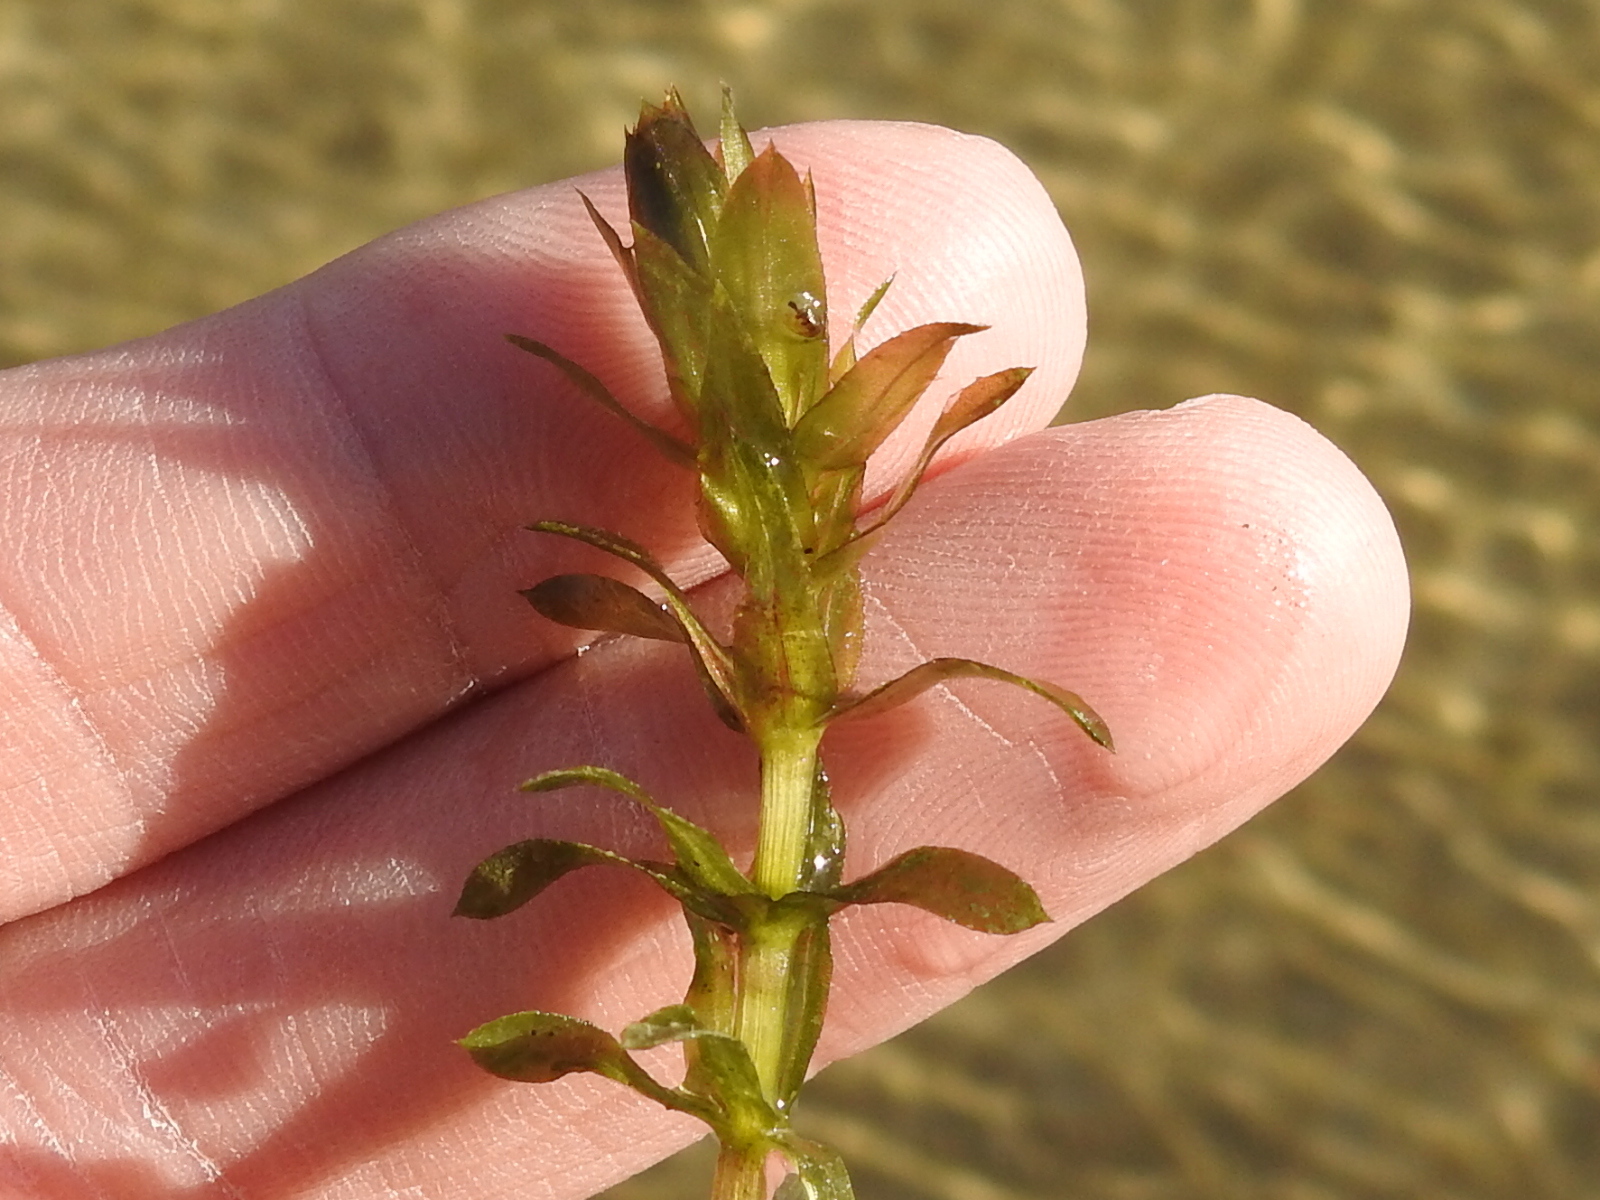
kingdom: Plantae
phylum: Tracheophyta
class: Liliopsida
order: Alismatales
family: Hydrocharitaceae
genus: Hydrilla
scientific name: Hydrilla verticillata
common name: Florida-elodea
